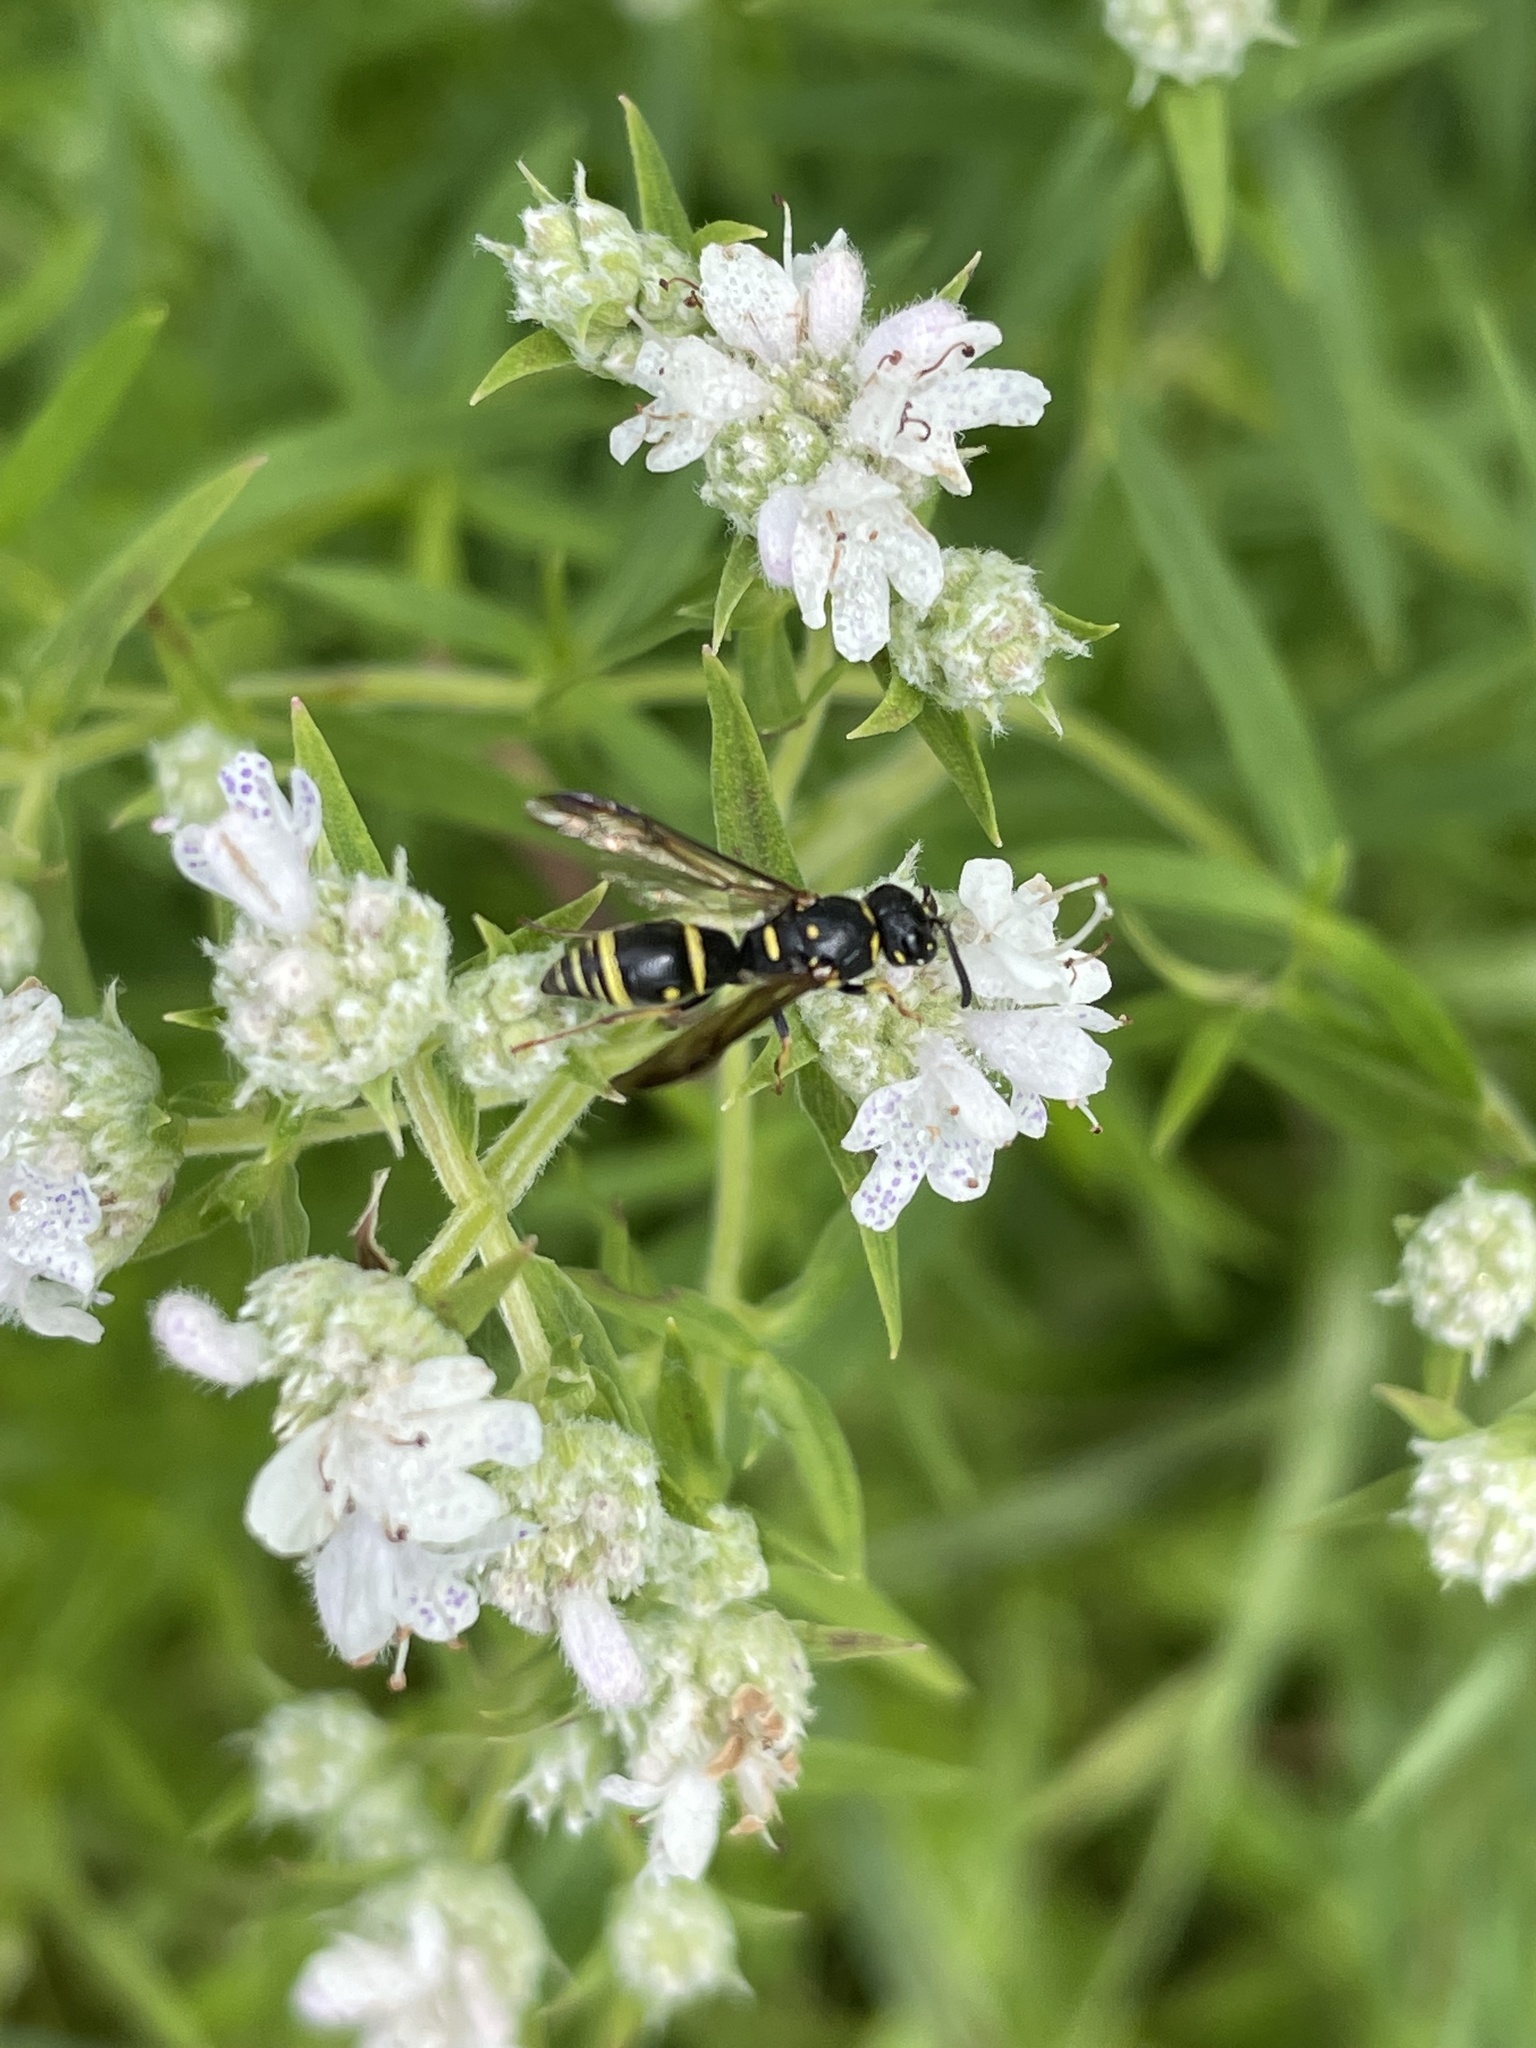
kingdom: Animalia
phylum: Arthropoda
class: Insecta
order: Hymenoptera
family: Eumenidae
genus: Parancistrocerus
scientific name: Parancistrocerus pedestris
